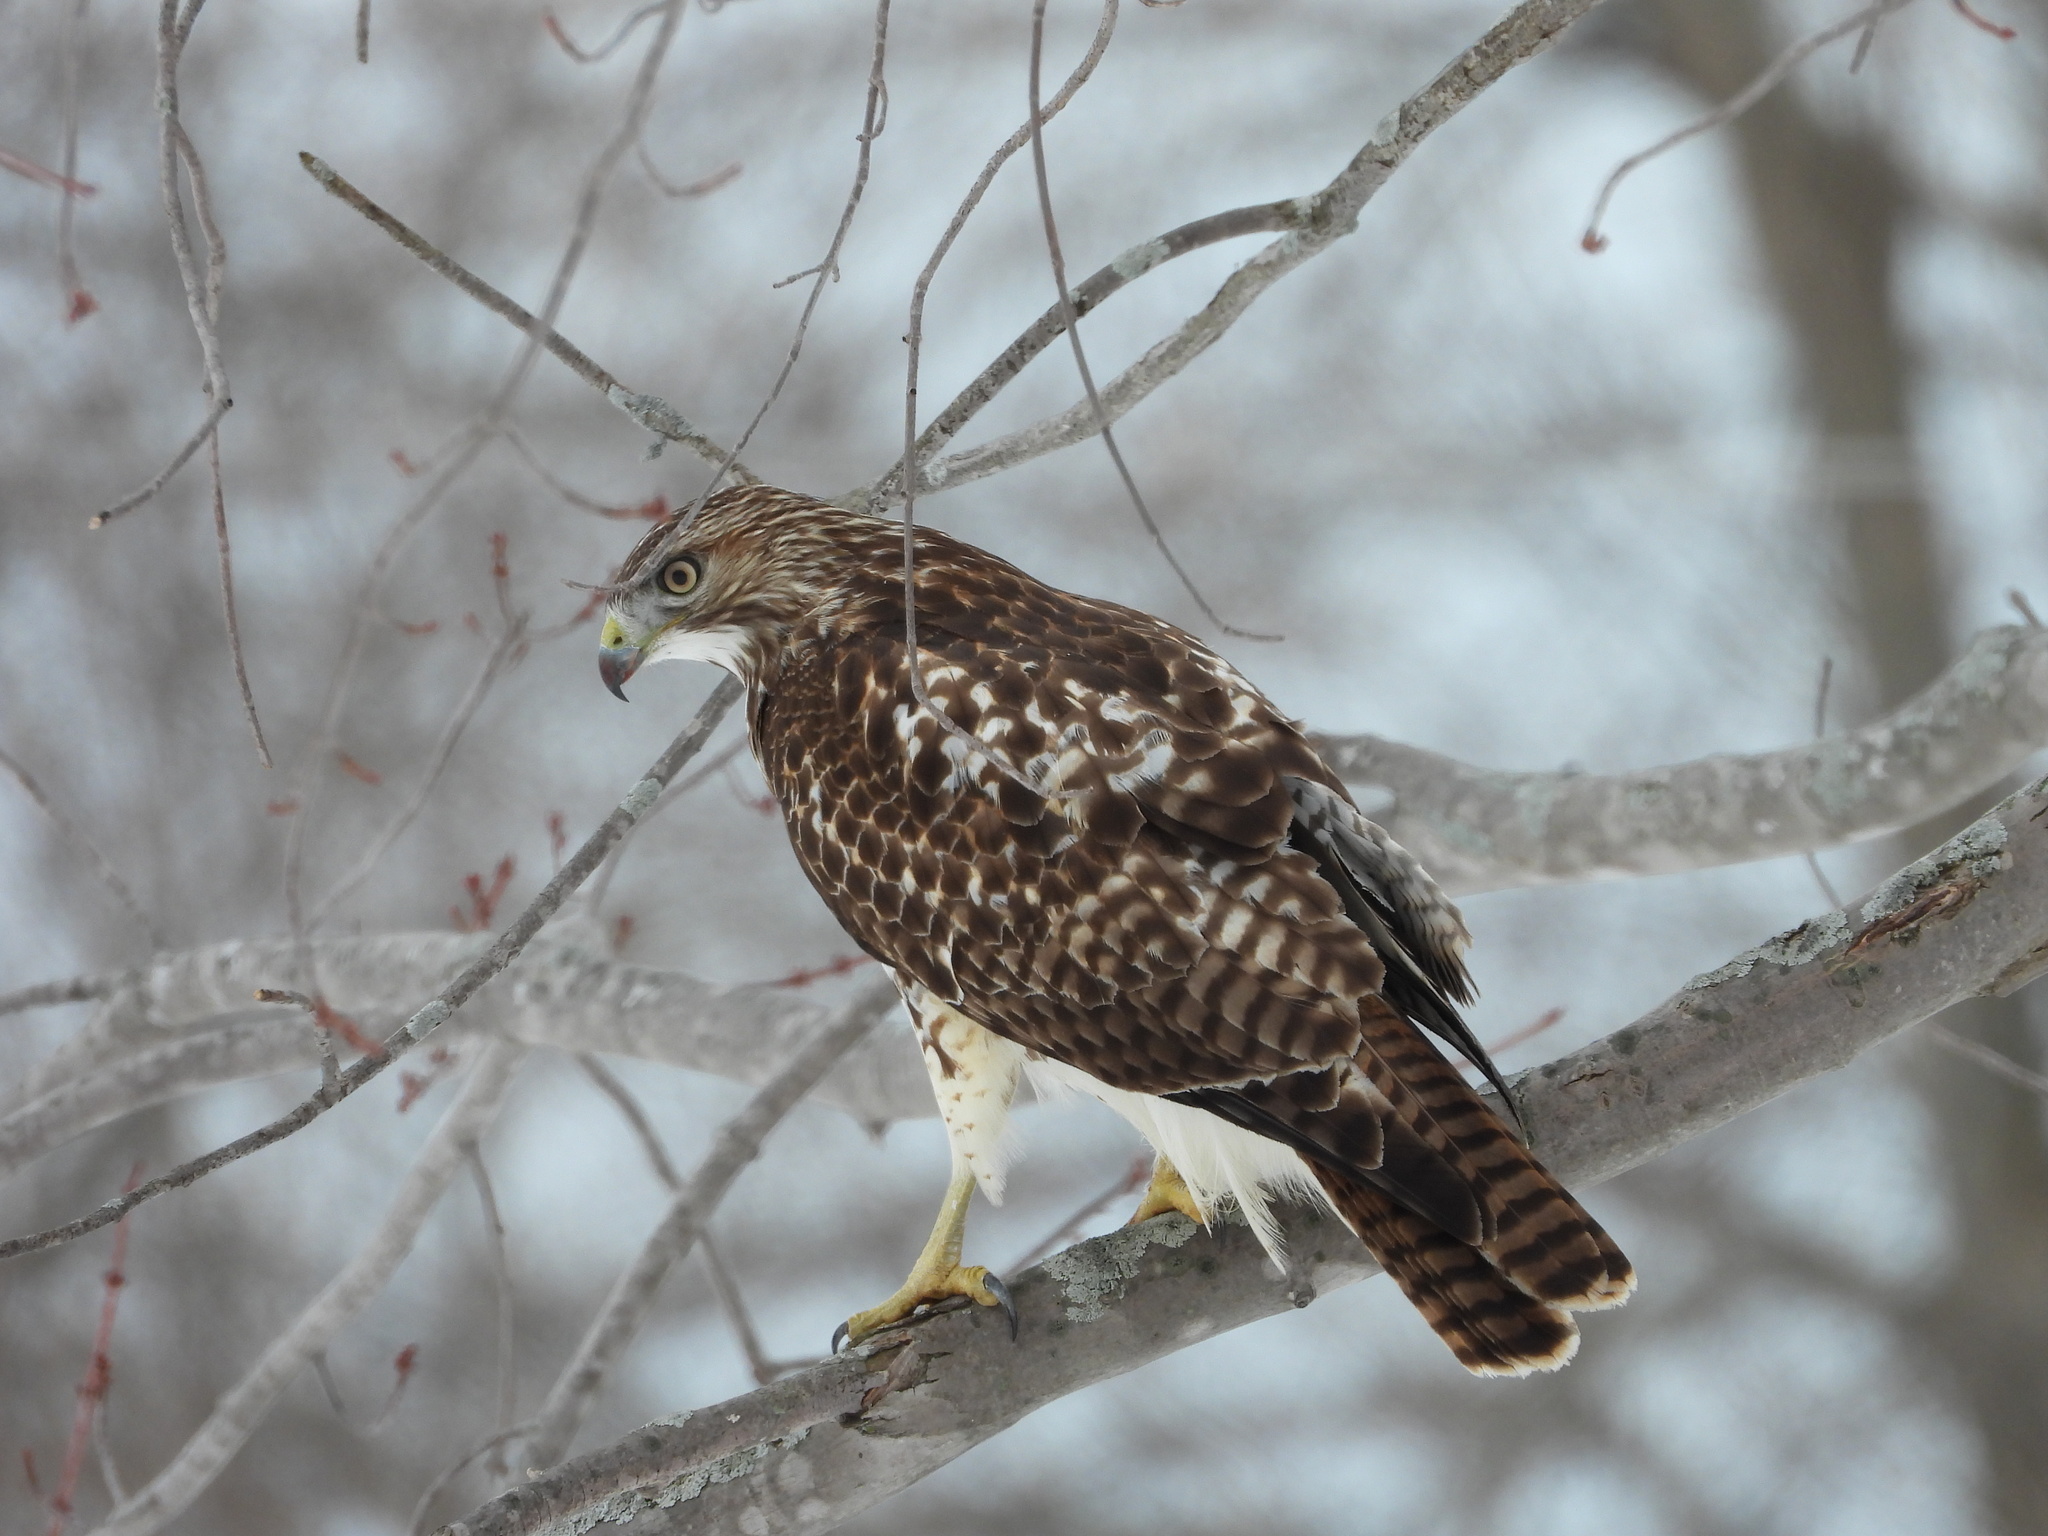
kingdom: Animalia
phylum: Chordata
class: Aves
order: Accipitriformes
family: Accipitridae
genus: Buteo
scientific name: Buteo jamaicensis
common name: Red-tailed hawk
